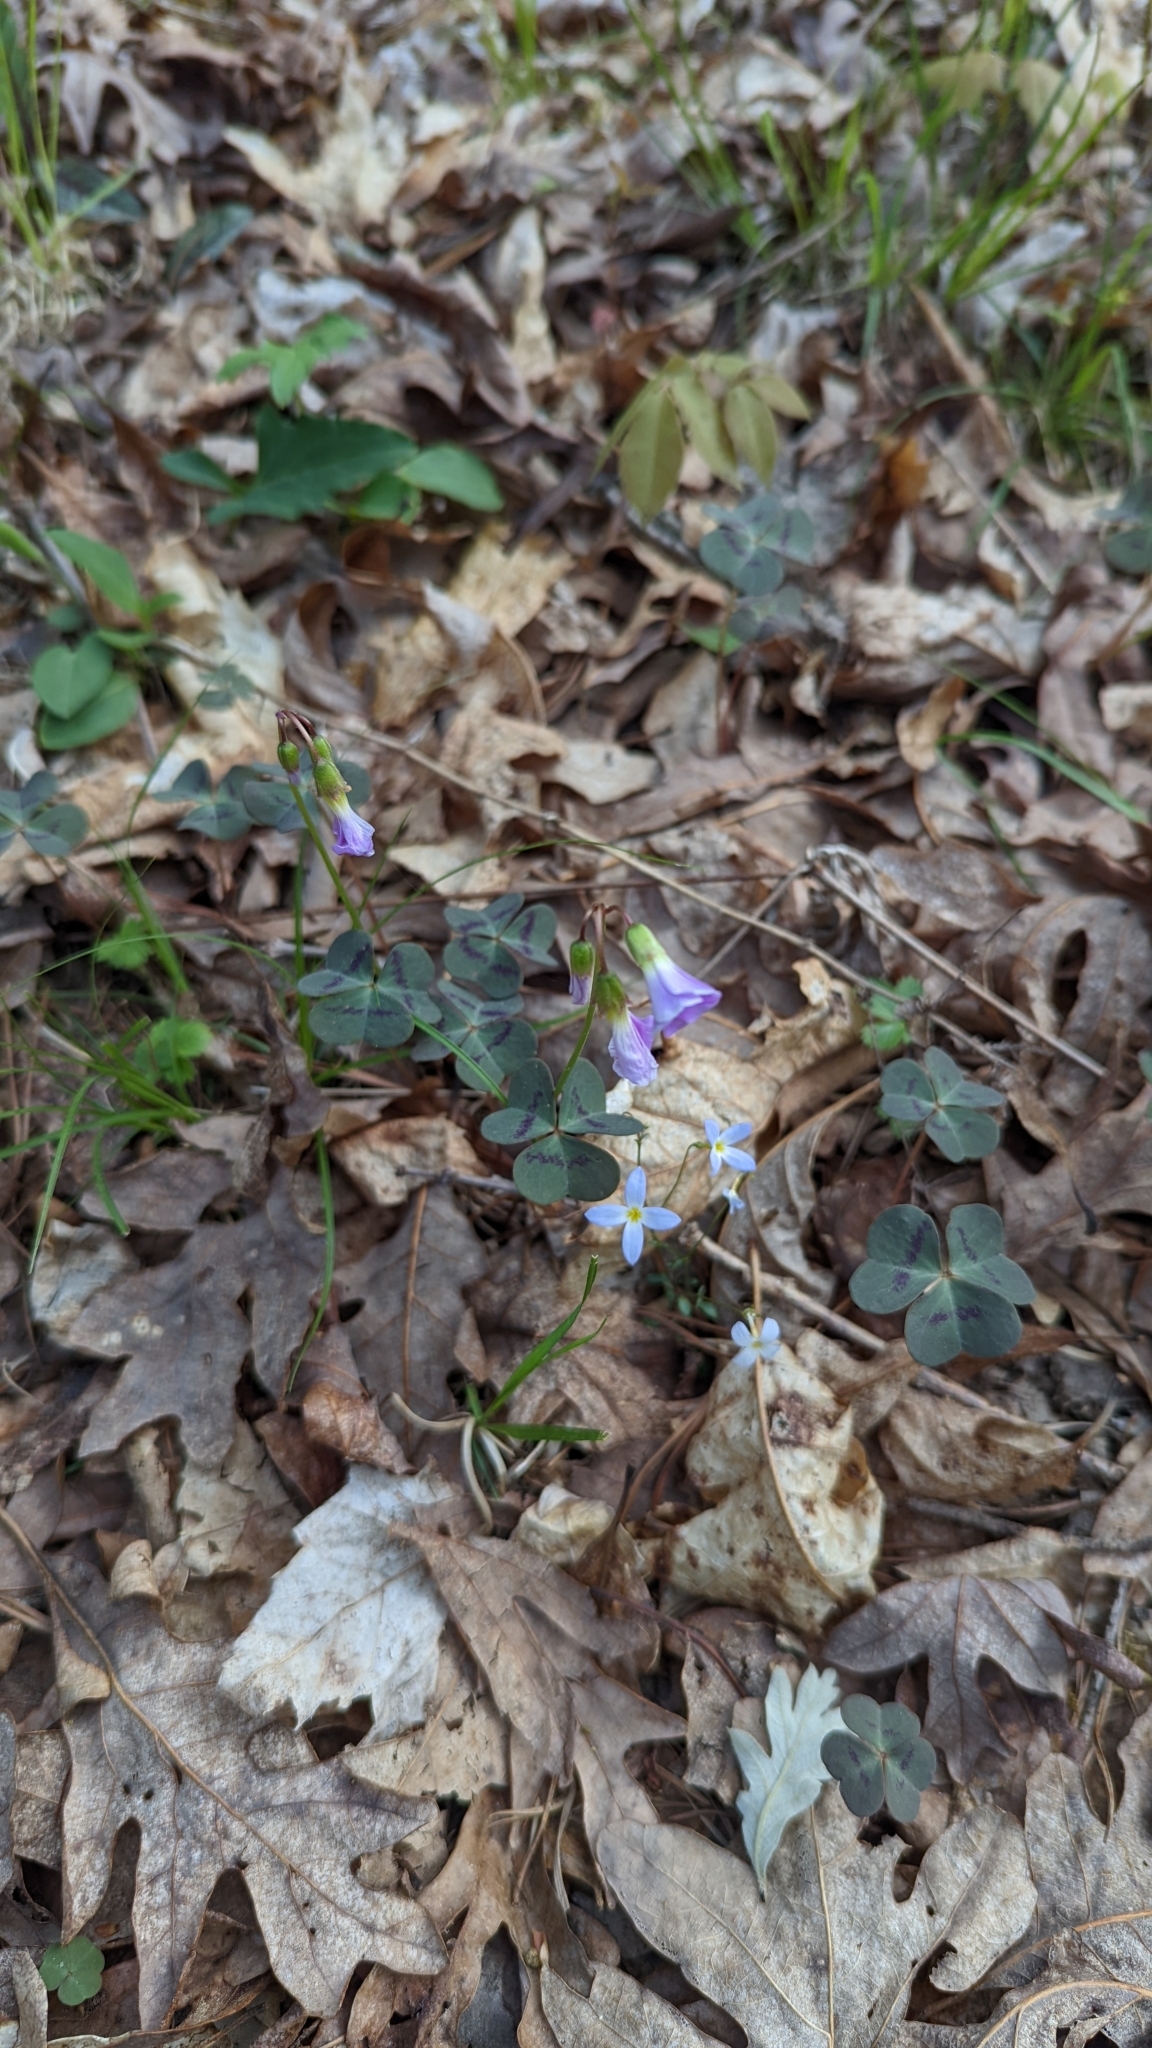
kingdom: Plantae
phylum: Tracheophyta
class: Magnoliopsida
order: Oxalidales
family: Oxalidaceae
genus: Oxalis
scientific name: Oxalis violacea
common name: Violet wood-sorrel
